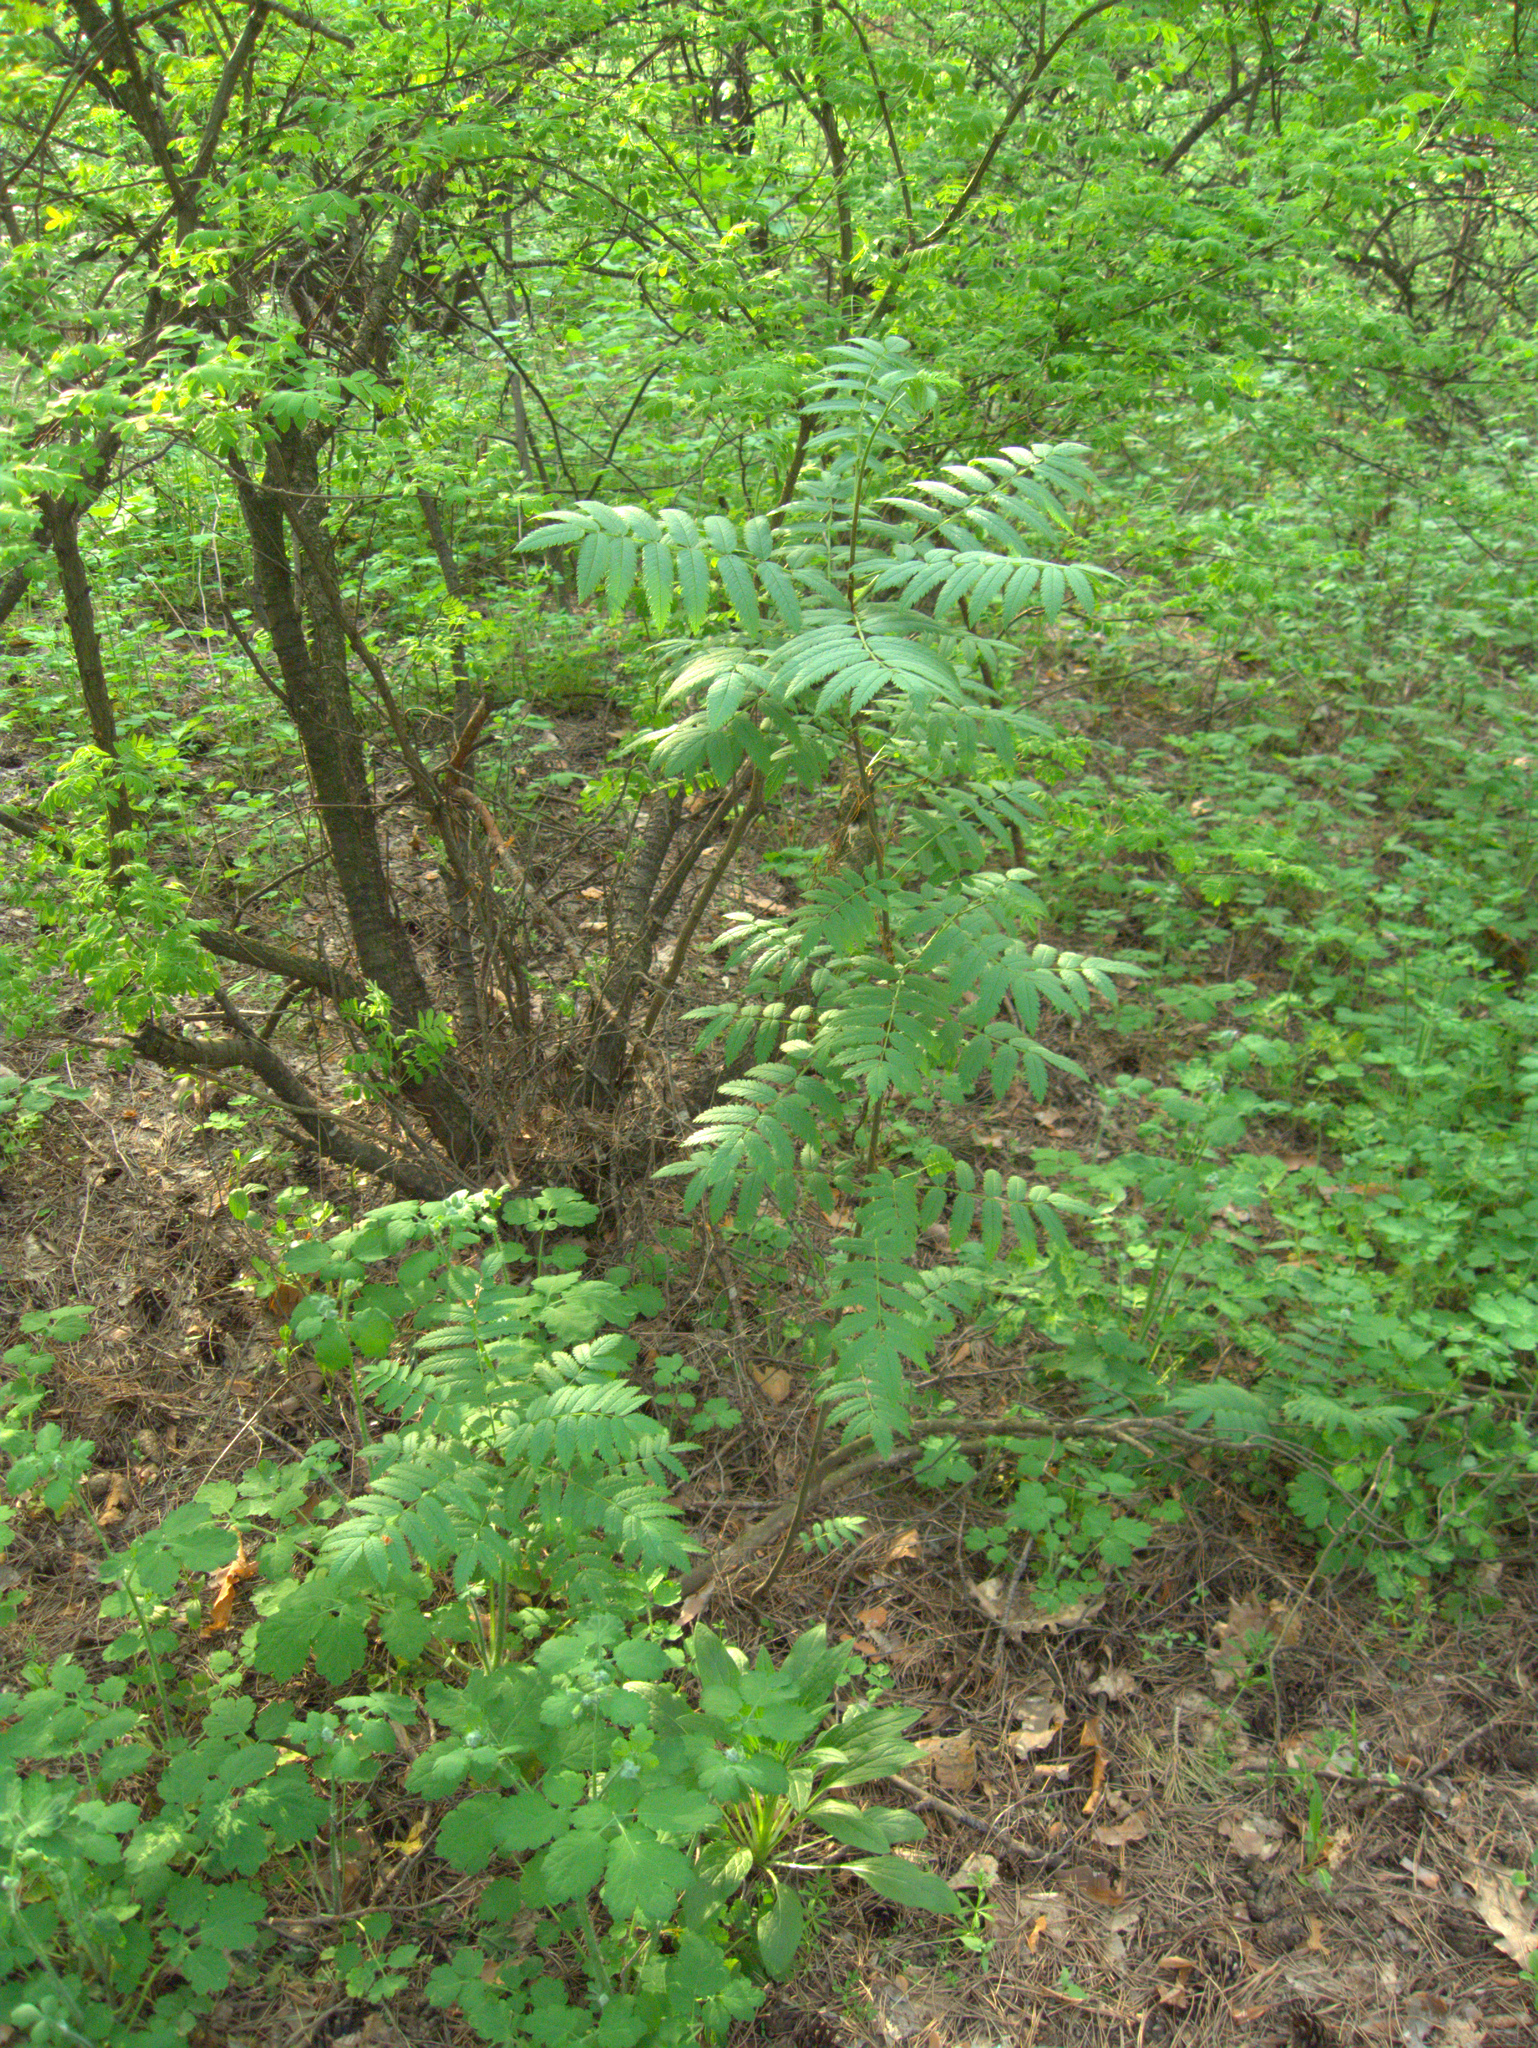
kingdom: Plantae
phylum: Tracheophyta
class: Magnoliopsida
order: Rosales
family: Rosaceae
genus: Sorbus
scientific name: Sorbus aucuparia
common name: Rowan
